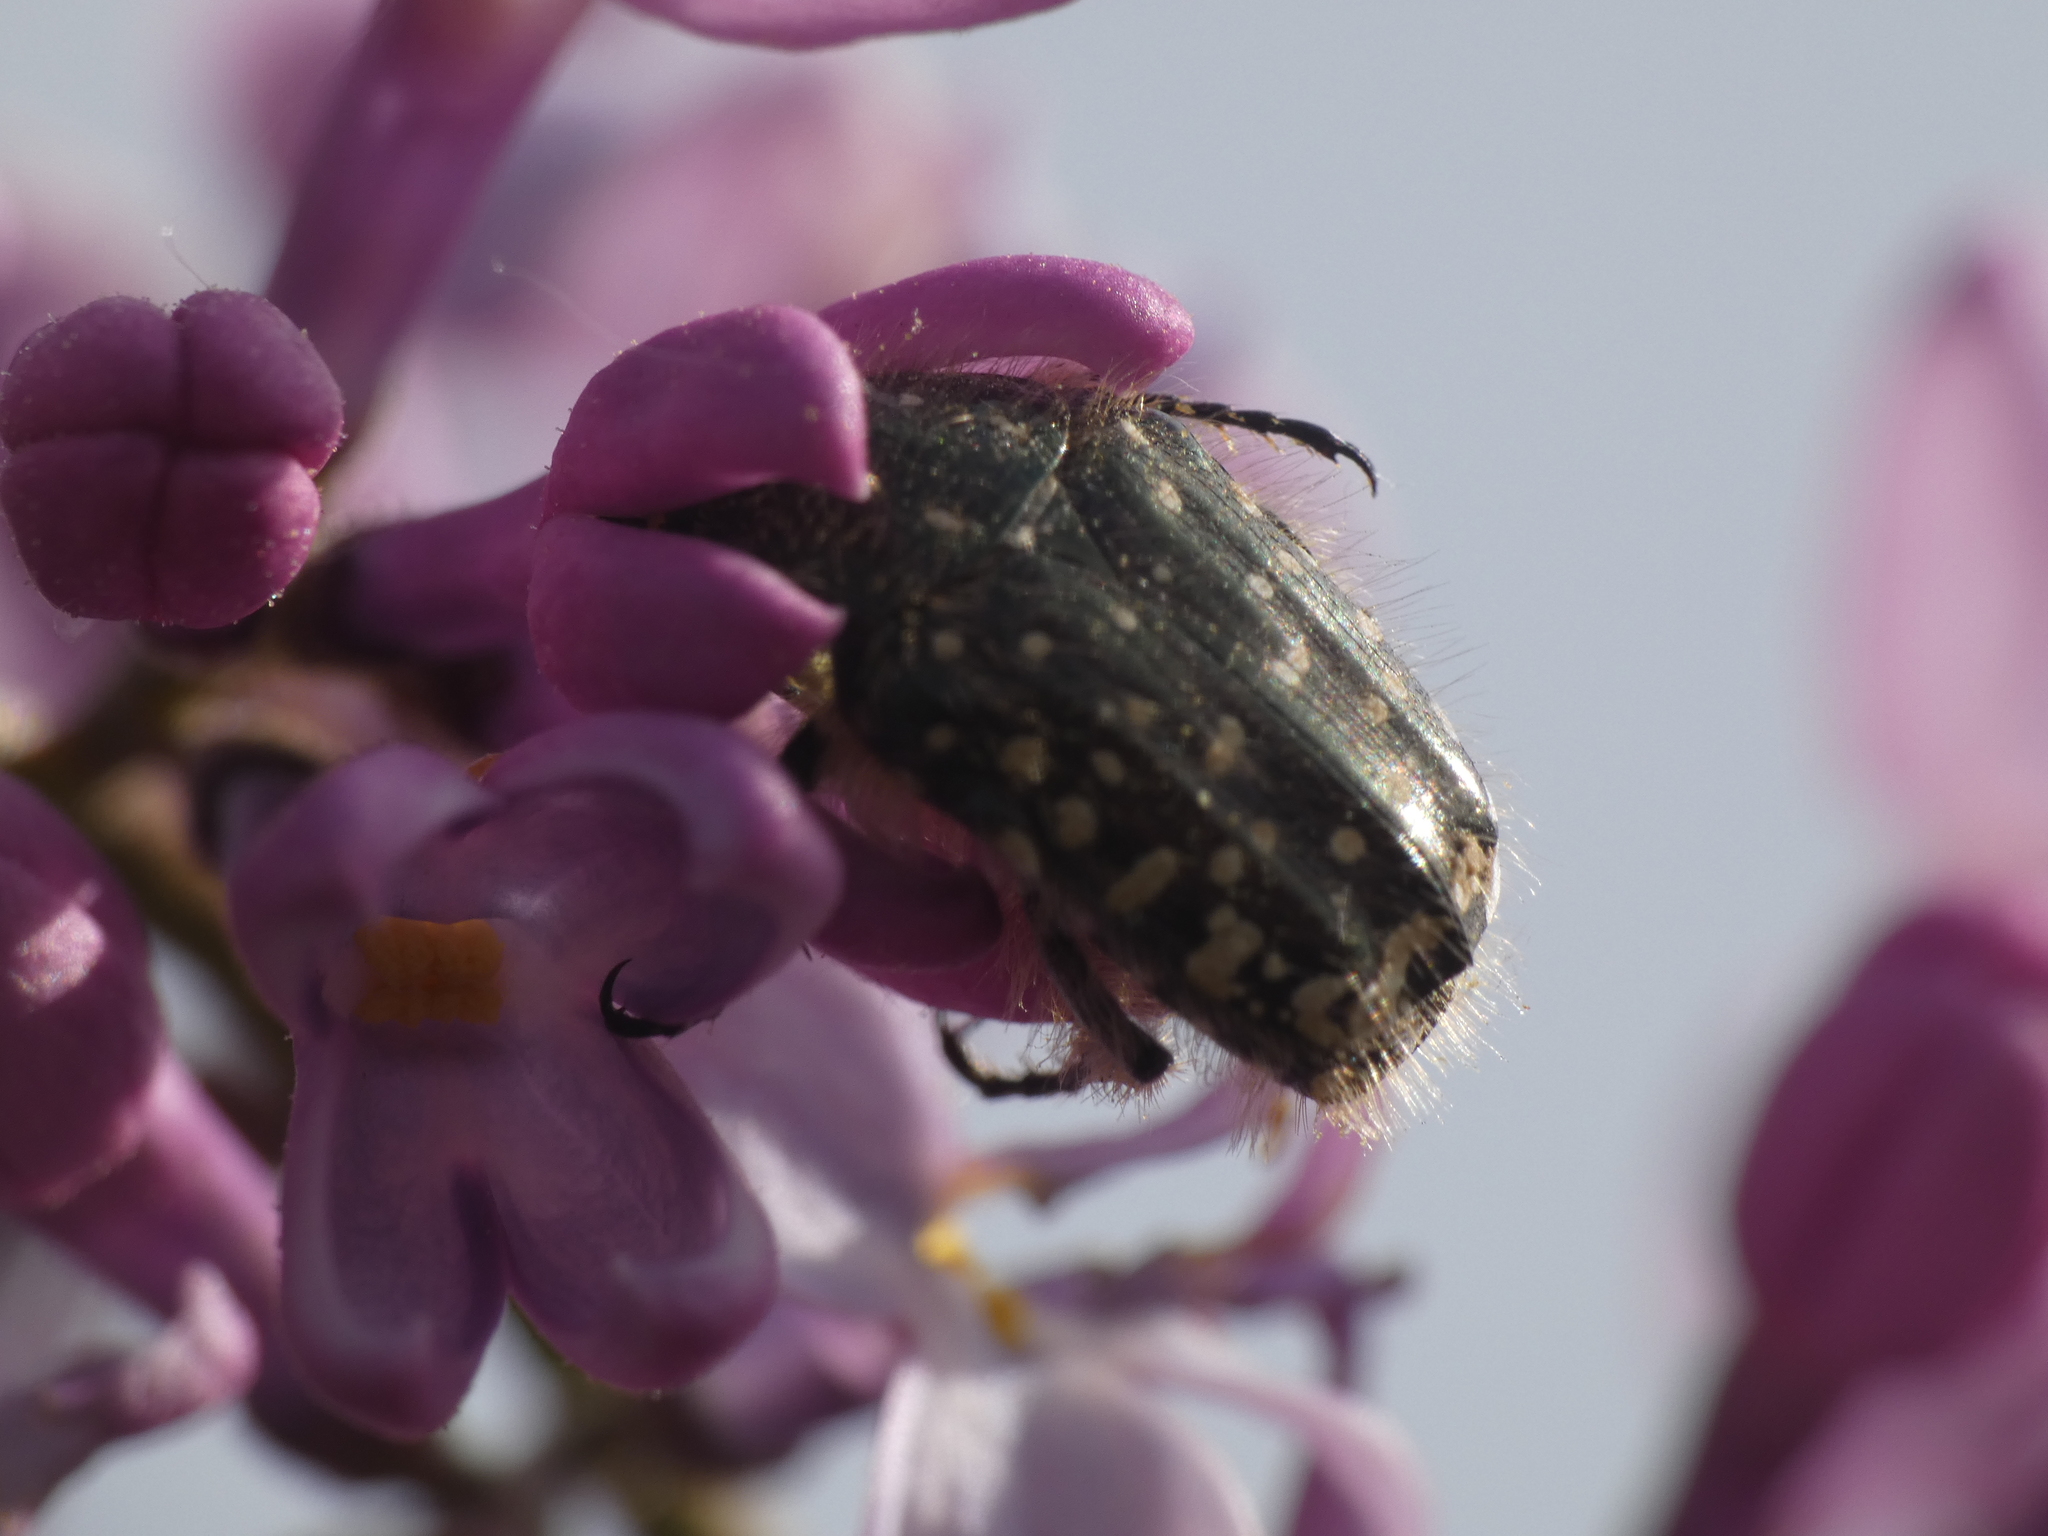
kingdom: Animalia
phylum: Arthropoda
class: Insecta
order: Coleoptera
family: Scarabaeidae
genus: Oxythyrea
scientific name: Oxythyrea funesta
